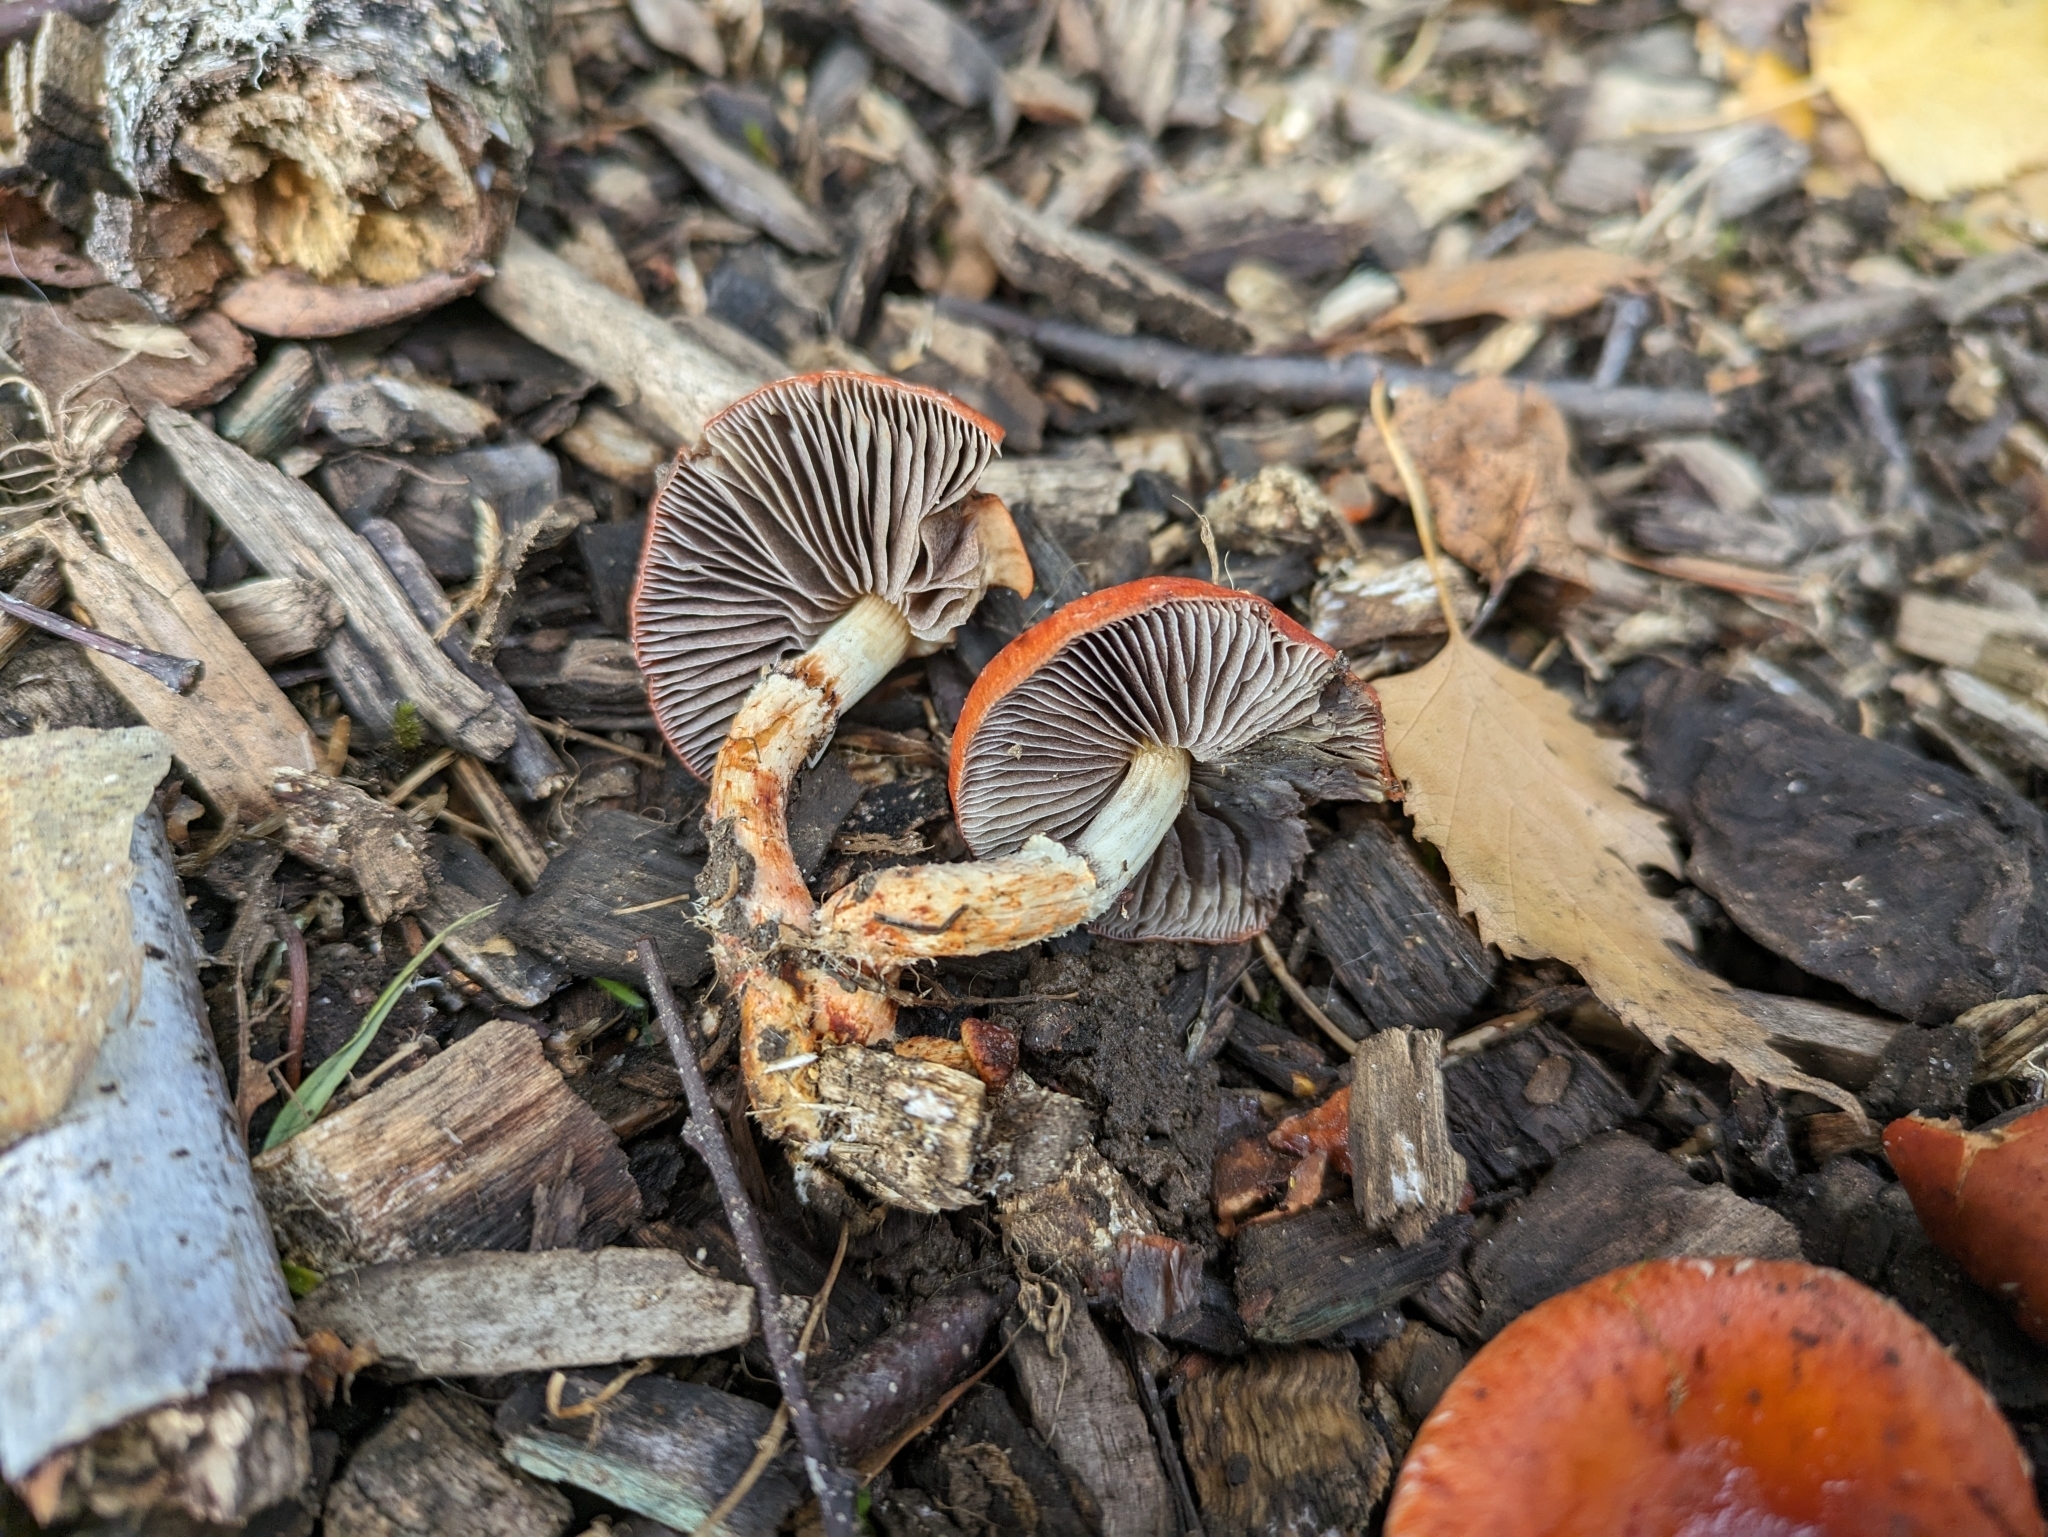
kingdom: Fungi
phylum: Basidiomycota
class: Agaricomycetes
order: Agaricales
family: Strophariaceae
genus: Leratiomyces
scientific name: Leratiomyces ceres
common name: Redlead roundhead
